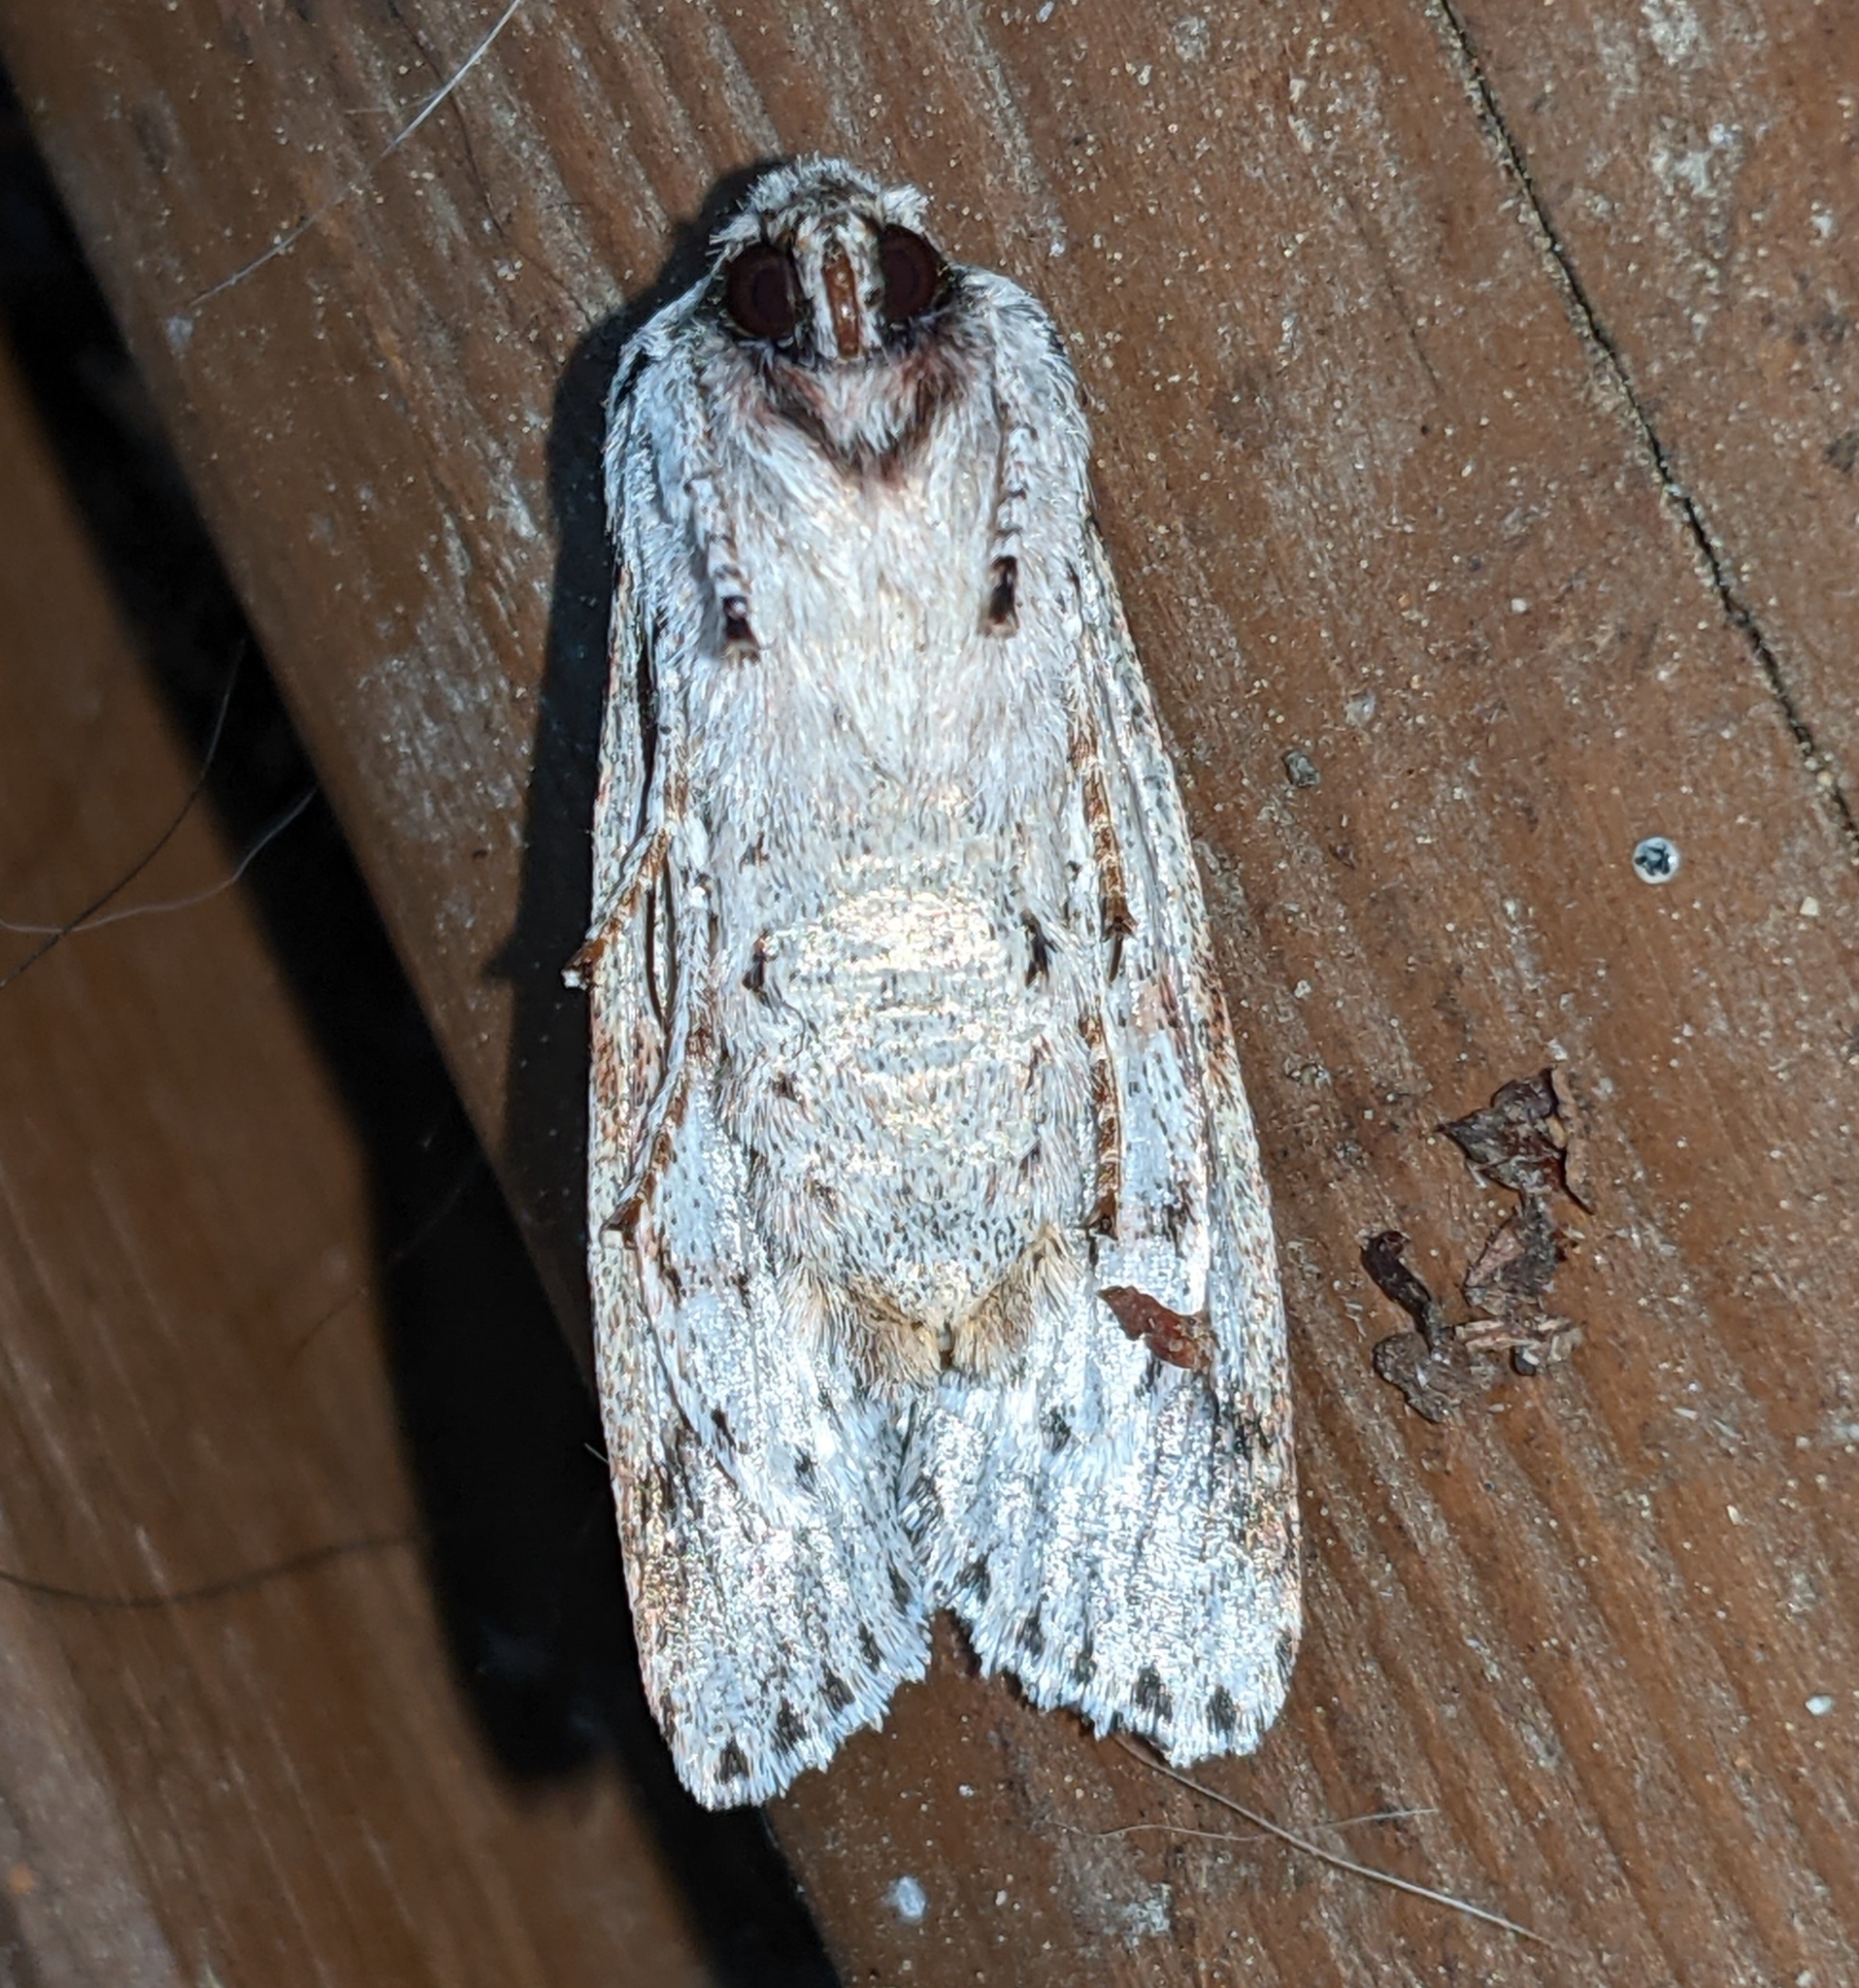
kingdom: Animalia
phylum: Arthropoda
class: Insecta
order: Lepidoptera
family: Noctuidae
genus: Egira
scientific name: Egira crucialis
